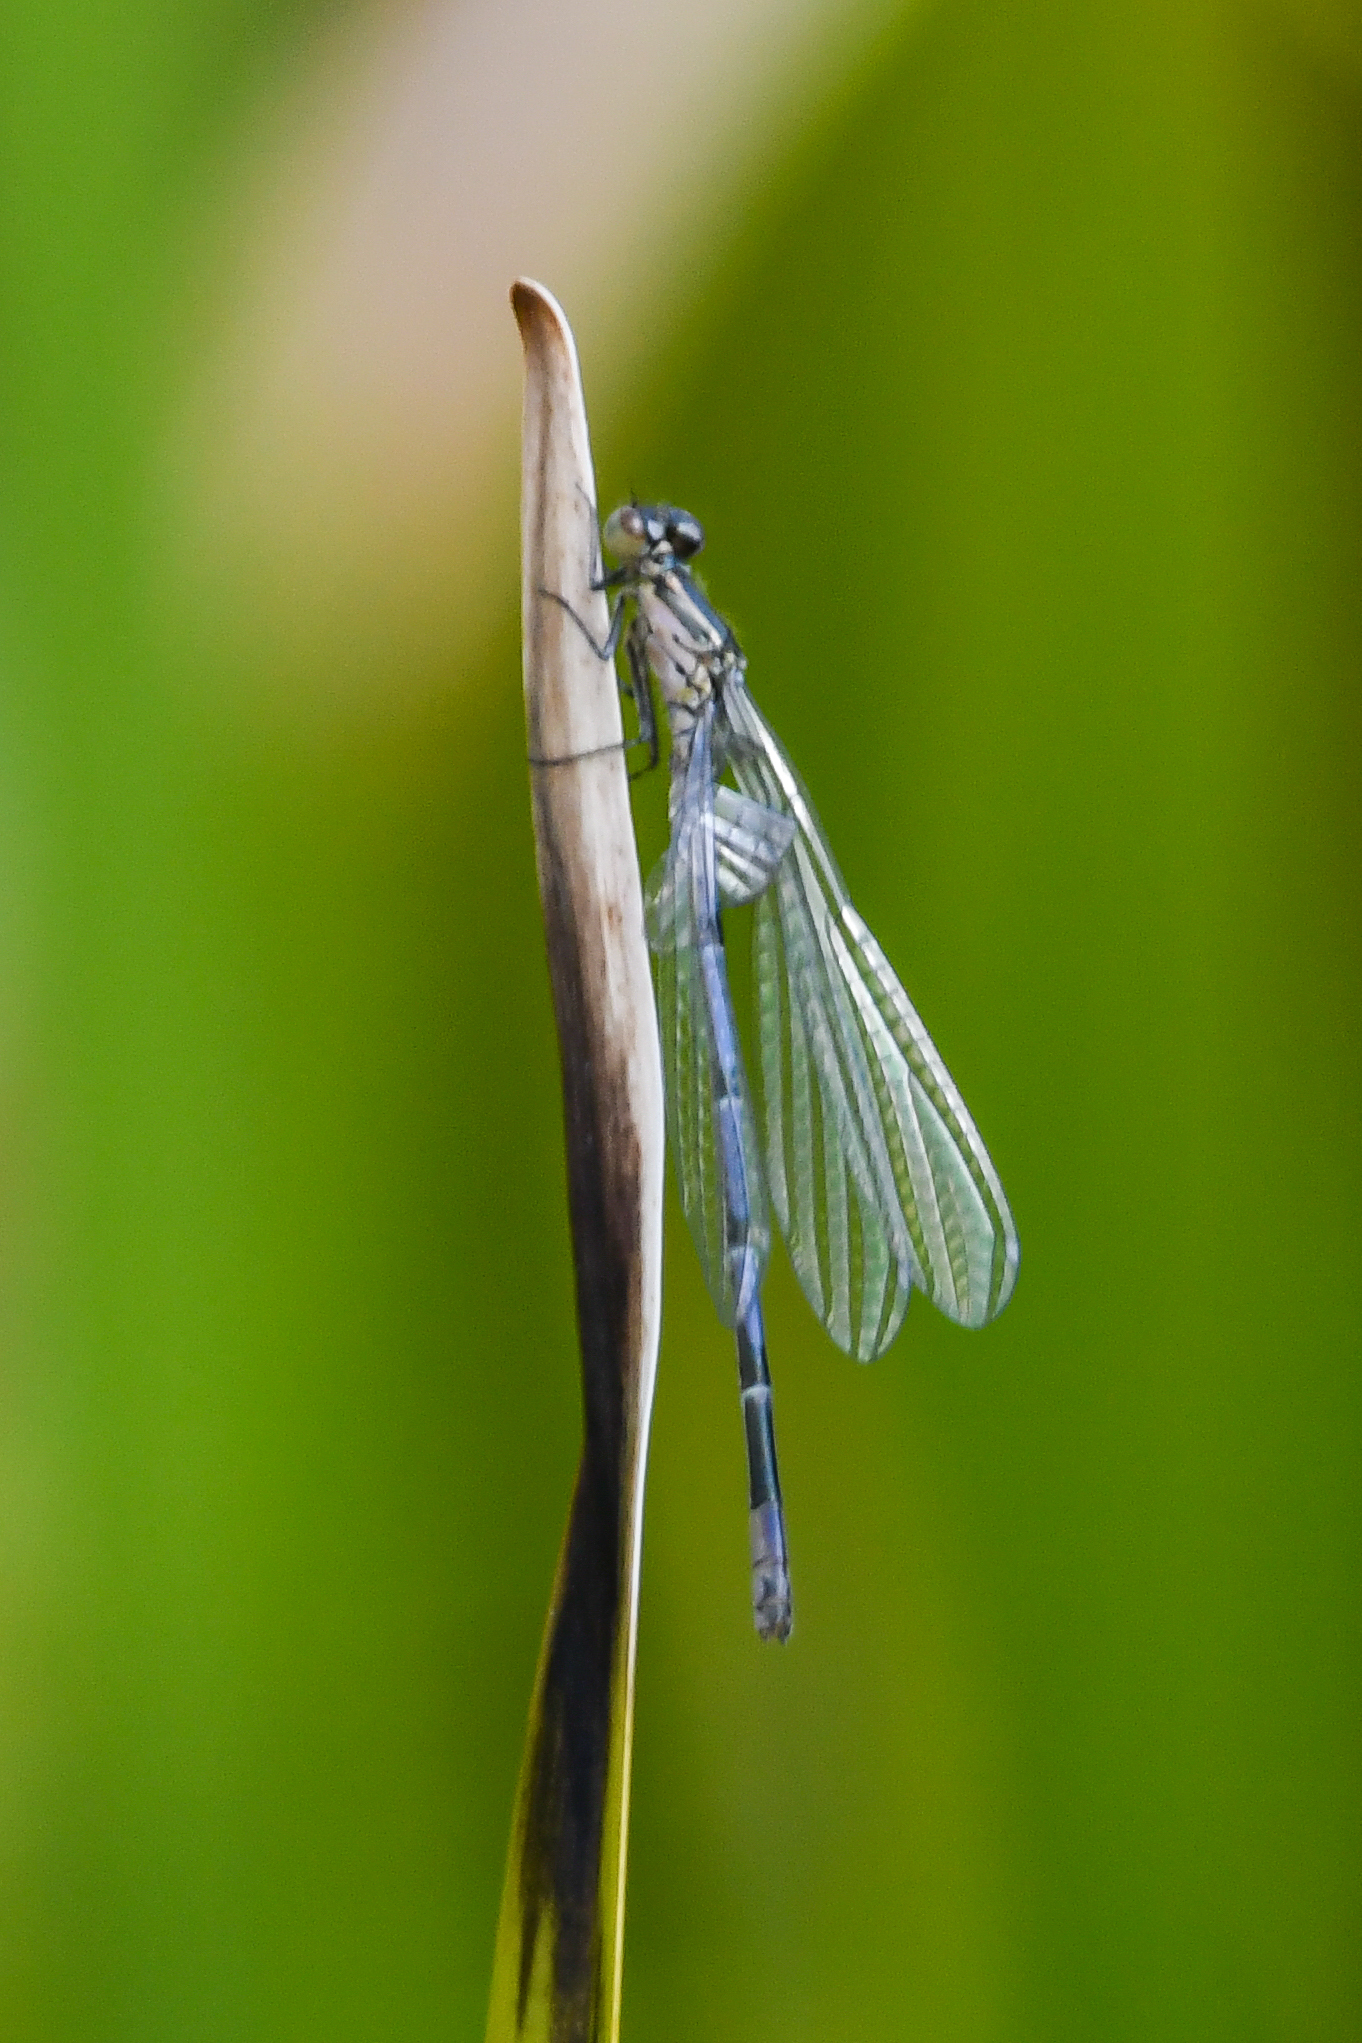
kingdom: Animalia
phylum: Arthropoda
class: Insecta
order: Odonata
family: Coenagrionidae
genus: Coenagrion
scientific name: Coenagrion puella
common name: Azure damselfly
